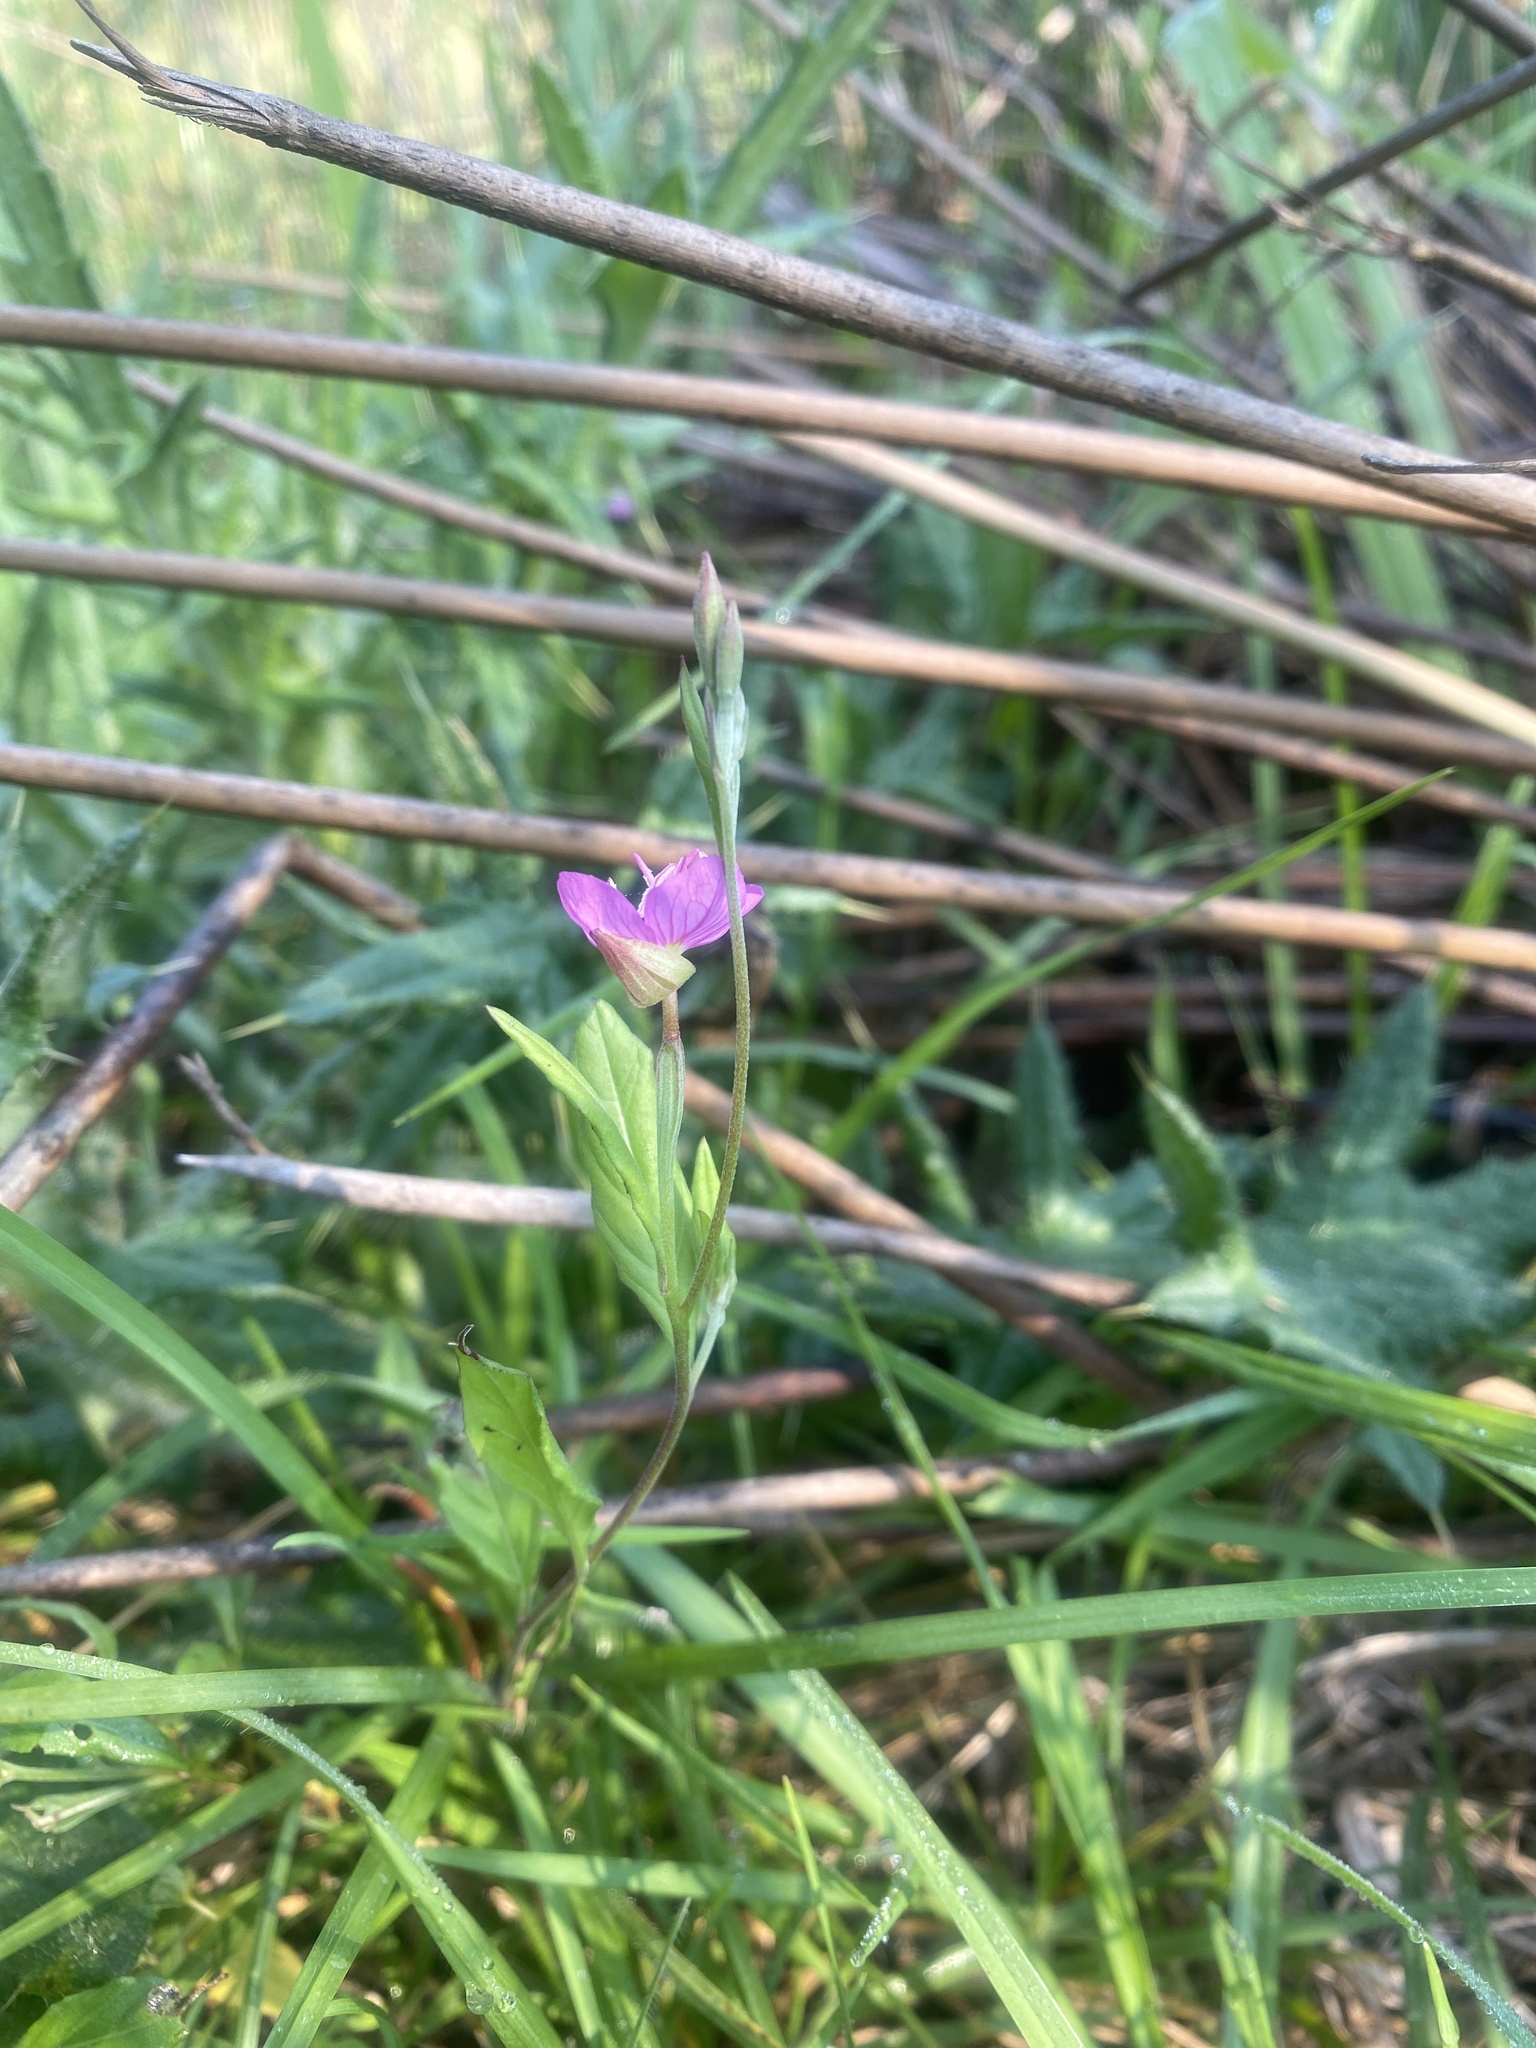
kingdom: Plantae
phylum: Tracheophyta
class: Magnoliopsida
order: Myrtales
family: Onagraceae
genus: Oenothera
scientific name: Oenothera rosea
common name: Rosy evening-primrose
